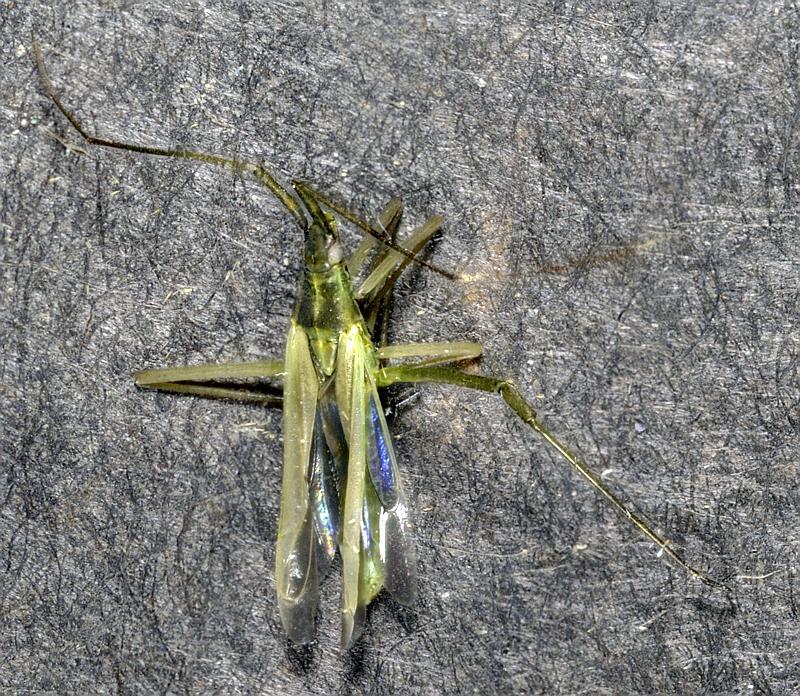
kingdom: Animalia
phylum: Arthropoda
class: Insecta
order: Hemiptera
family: Miridae
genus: Megaloceroea
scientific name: Megaloceroea recticornis
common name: Plant bug
